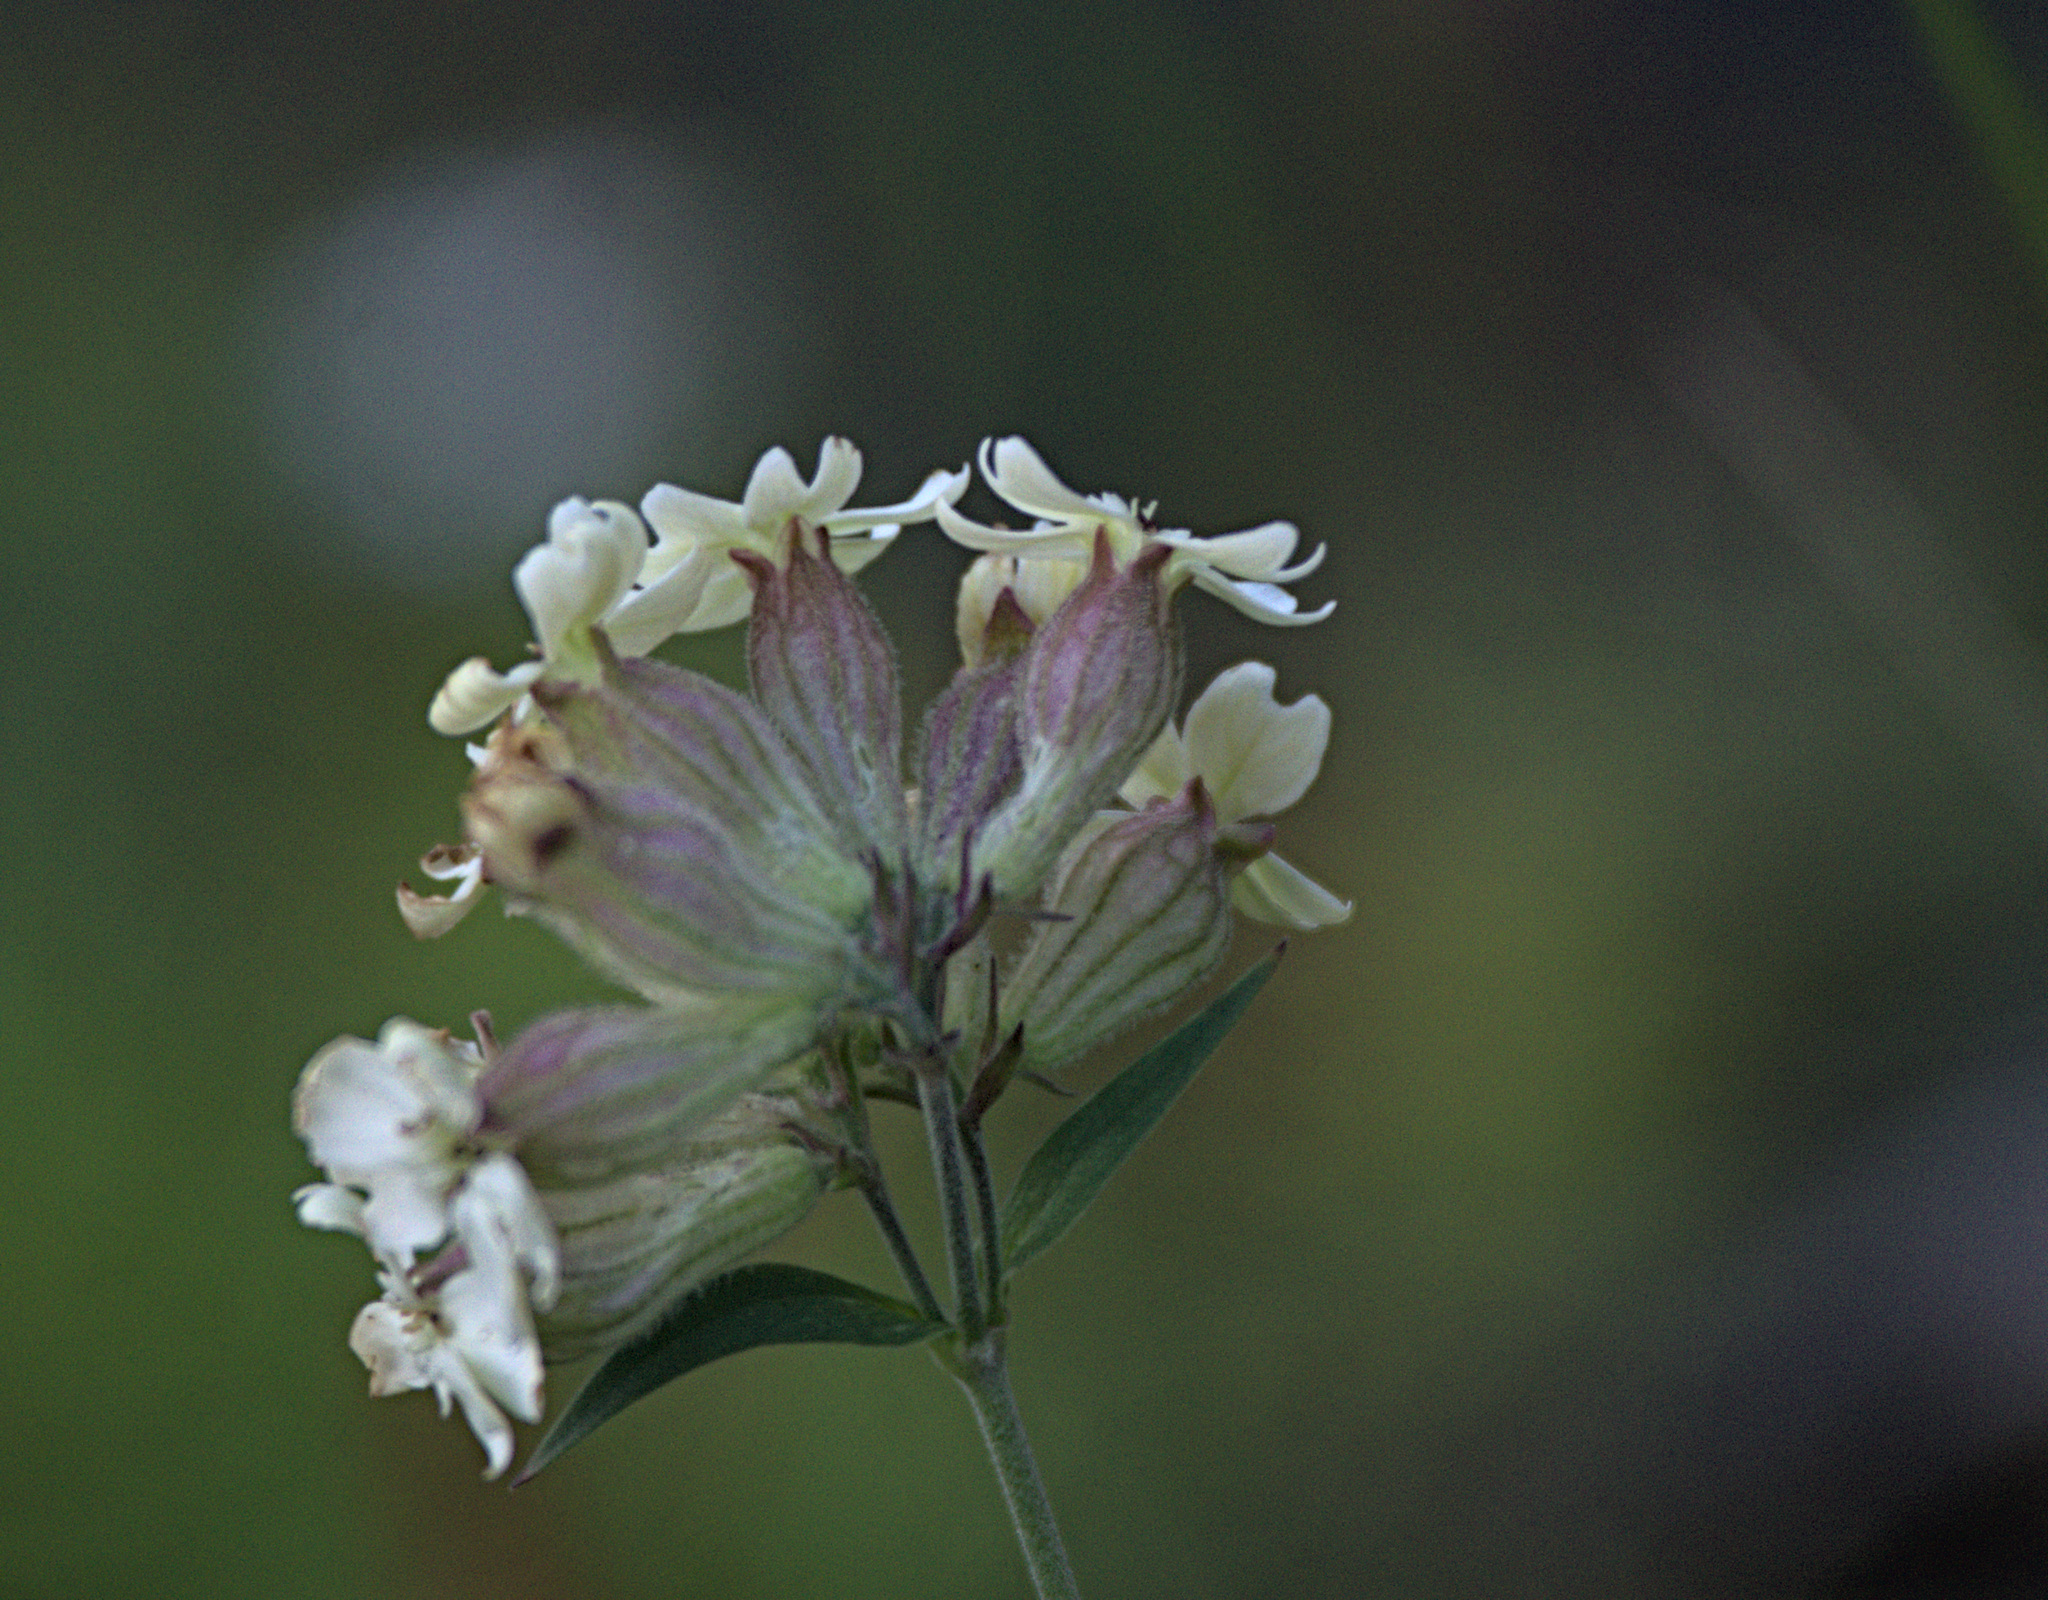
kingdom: Plantae
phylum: Tracheophyta
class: Magnoliopsida
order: Caryophyllales
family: Caryophyllaceae
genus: Silene
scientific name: Silene amoena
